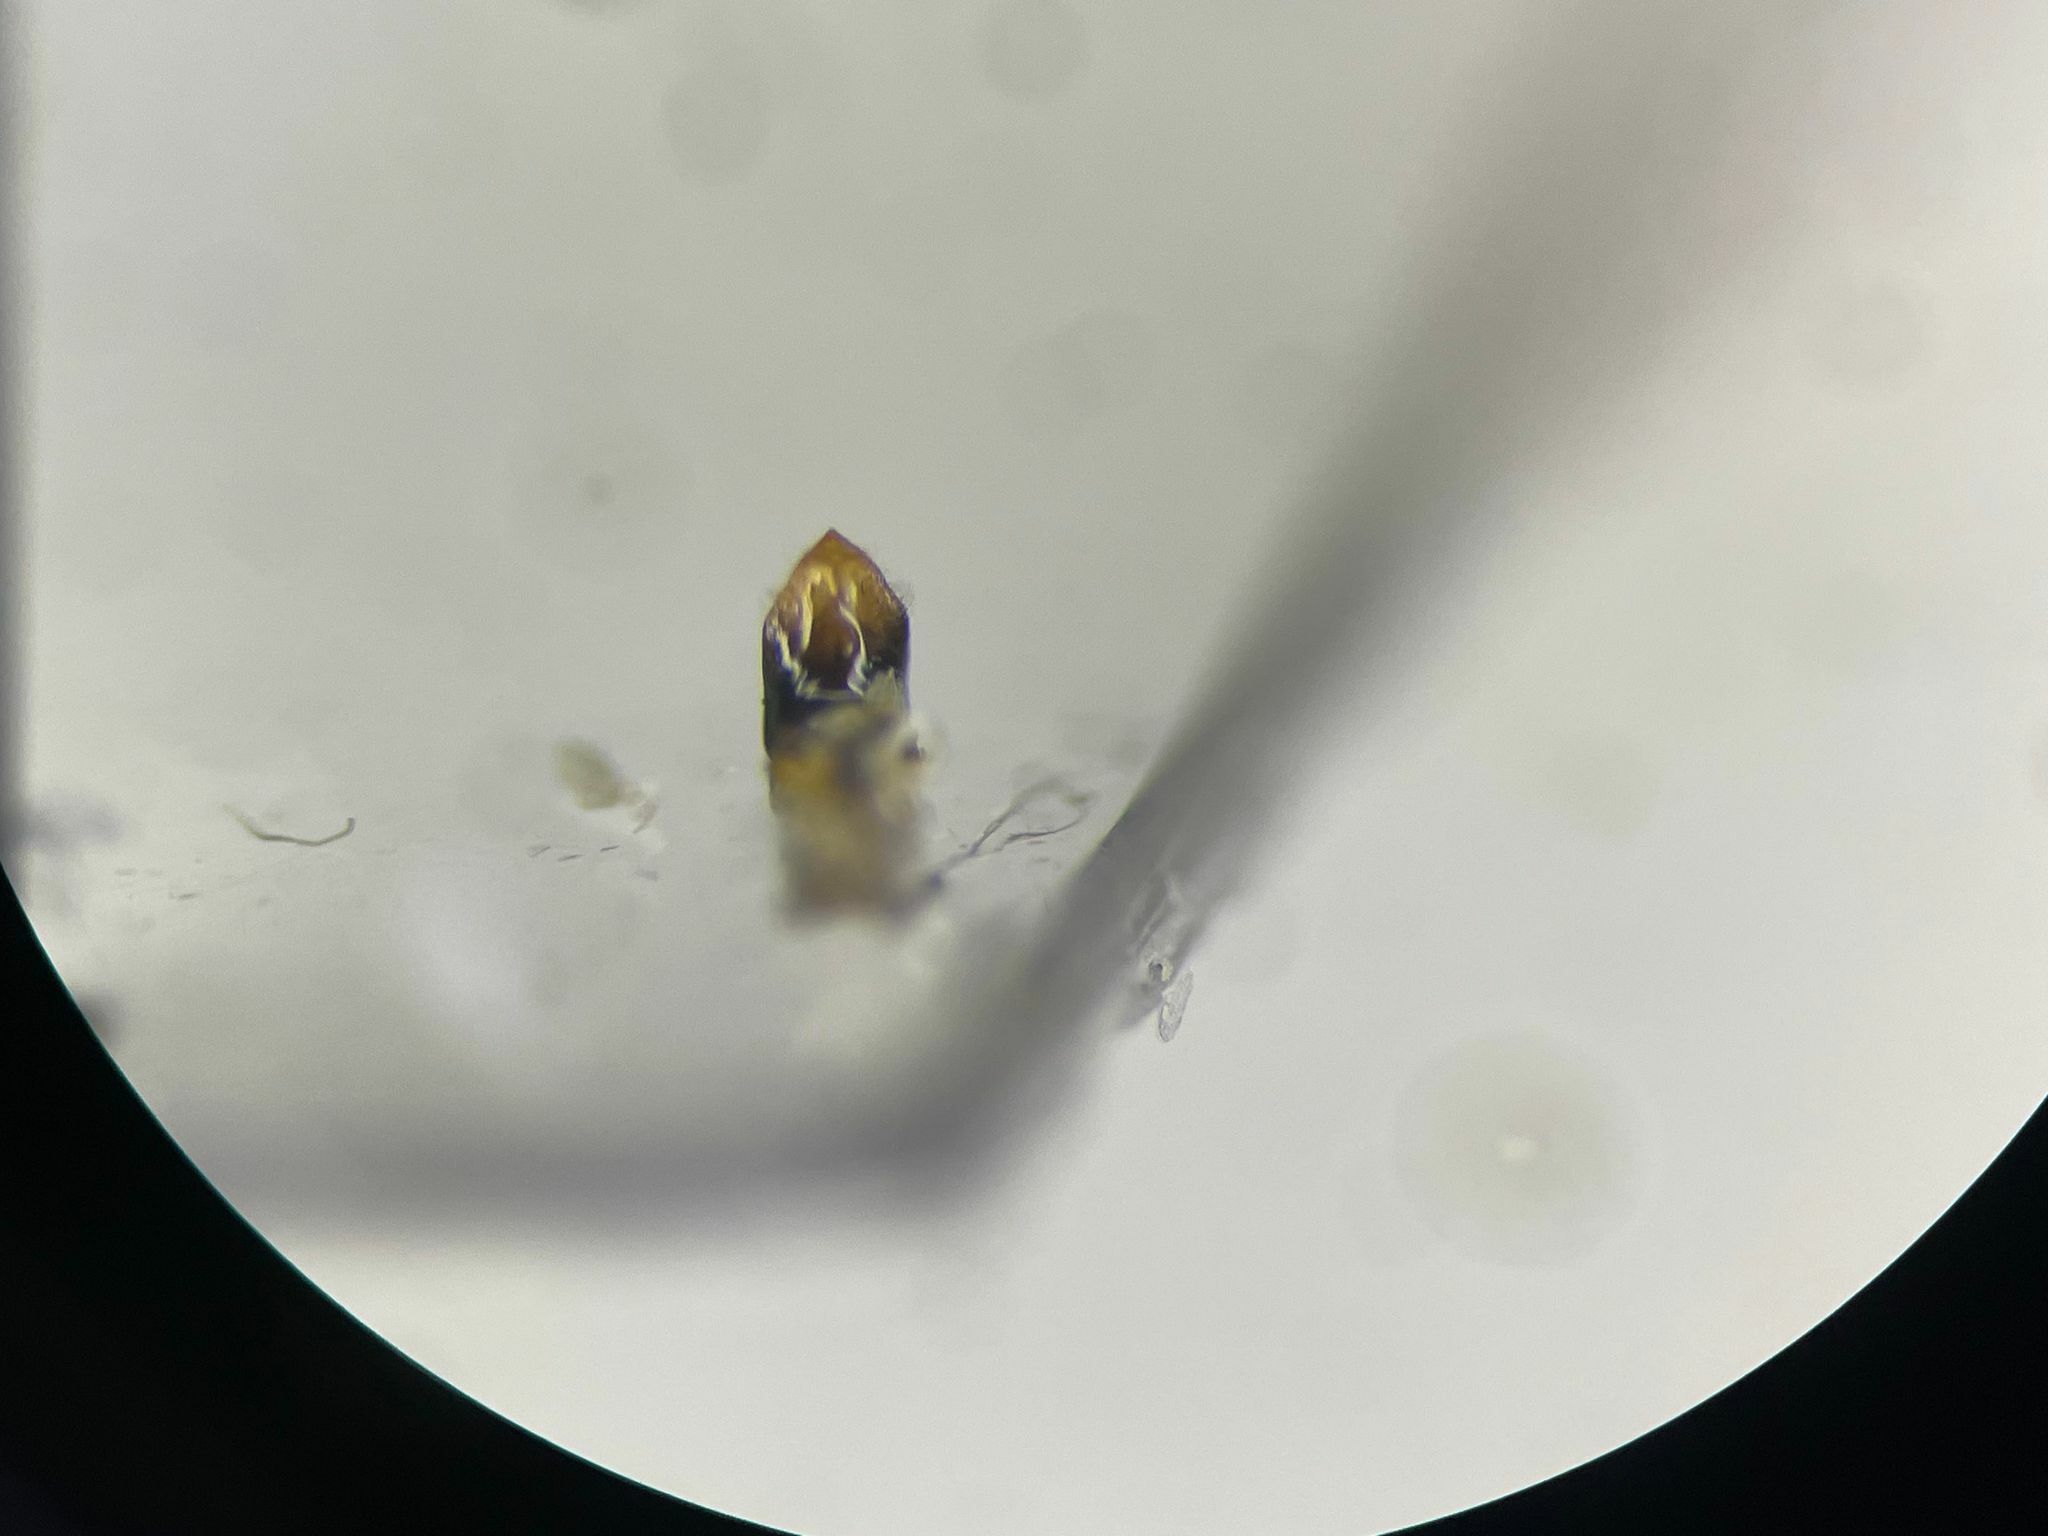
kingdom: Animalia
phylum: Arthropoda
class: Insecta
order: Coleoptera
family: Chrysomelidae
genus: Pachybrachis
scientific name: Pachybrachis luctuosus
